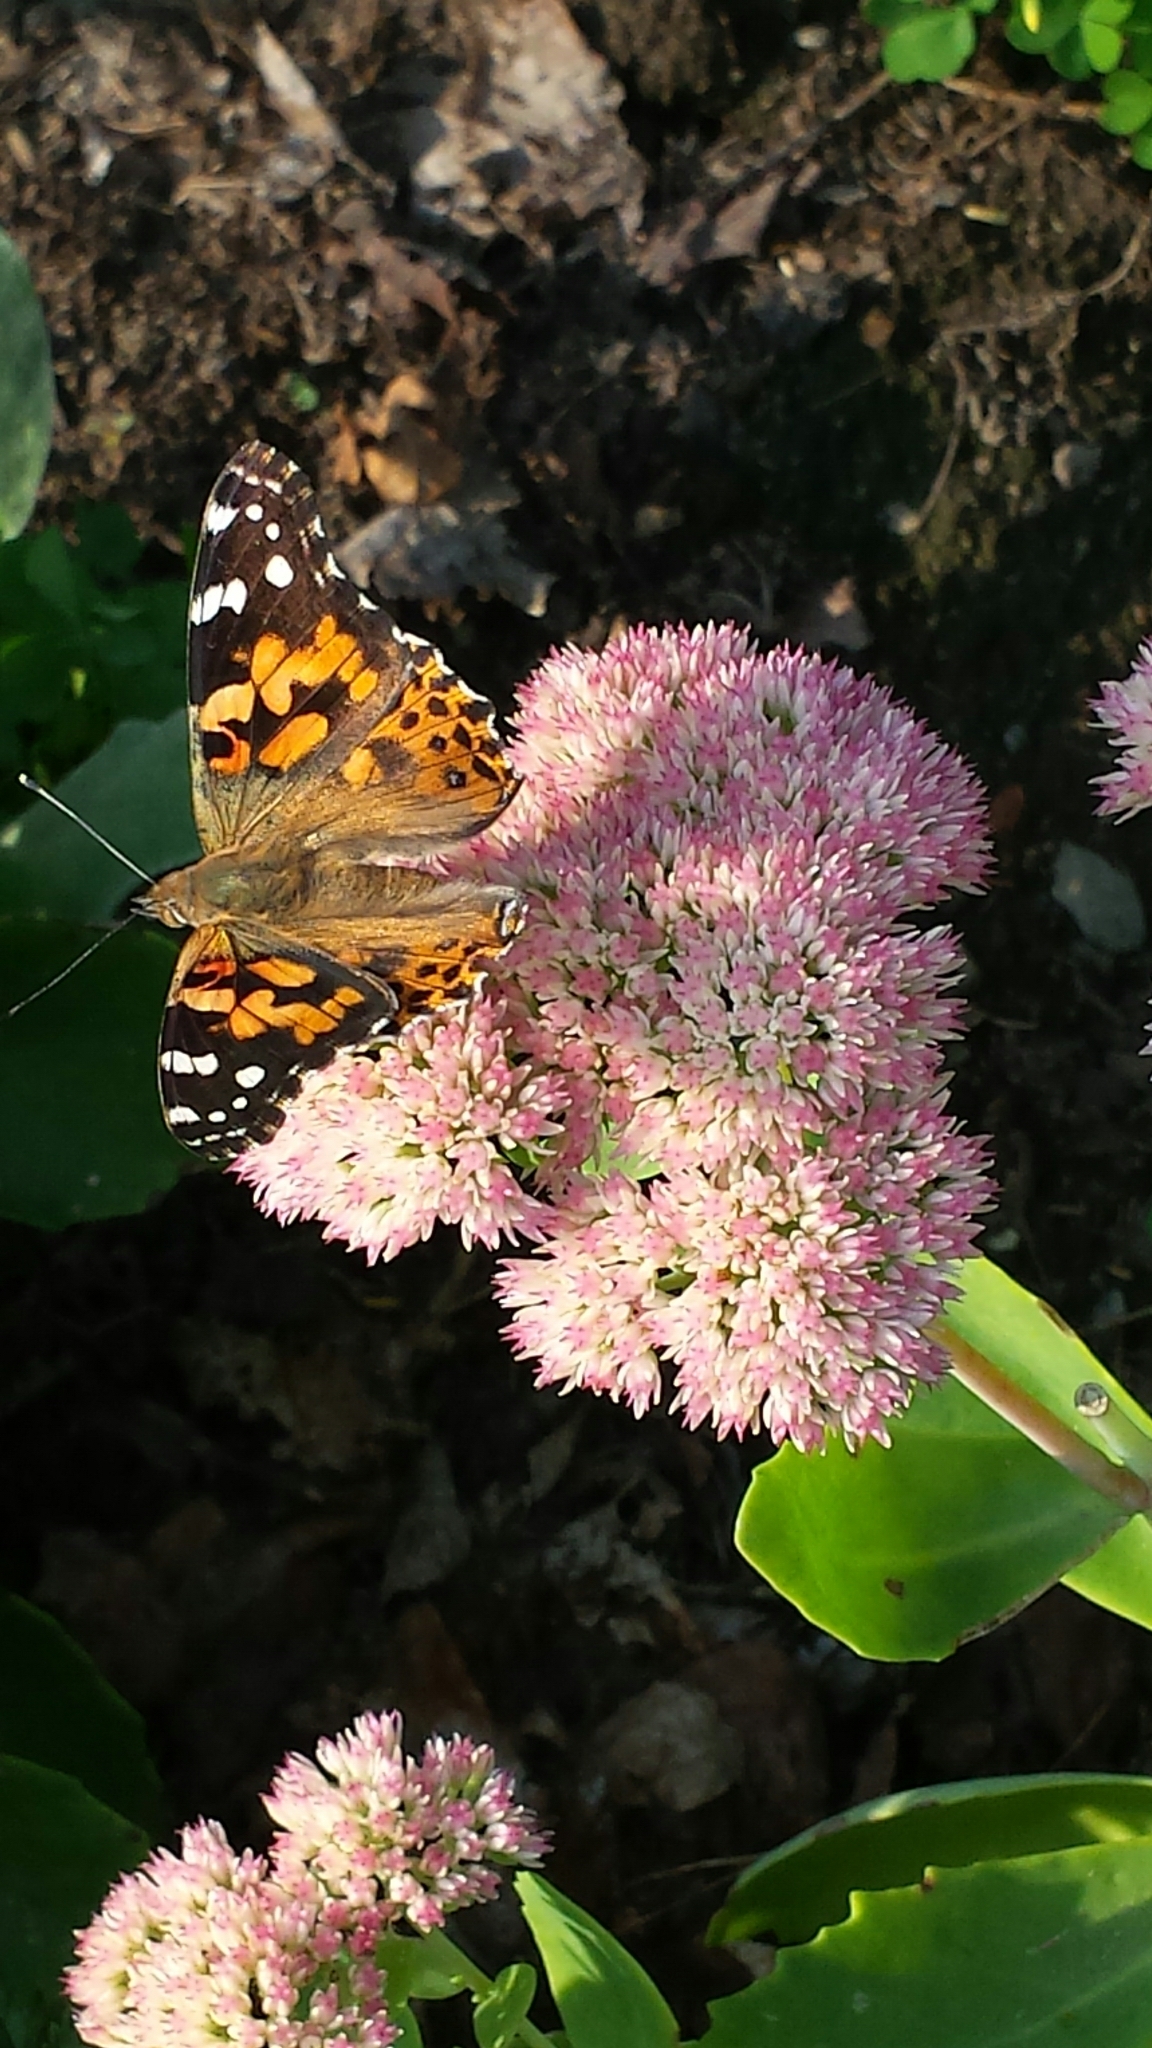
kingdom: Animalia
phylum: Arthropoda
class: Insecta
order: Lepidoptera
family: Nymphalidae
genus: Vanessa
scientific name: Vanessa cardui
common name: Painted lady
